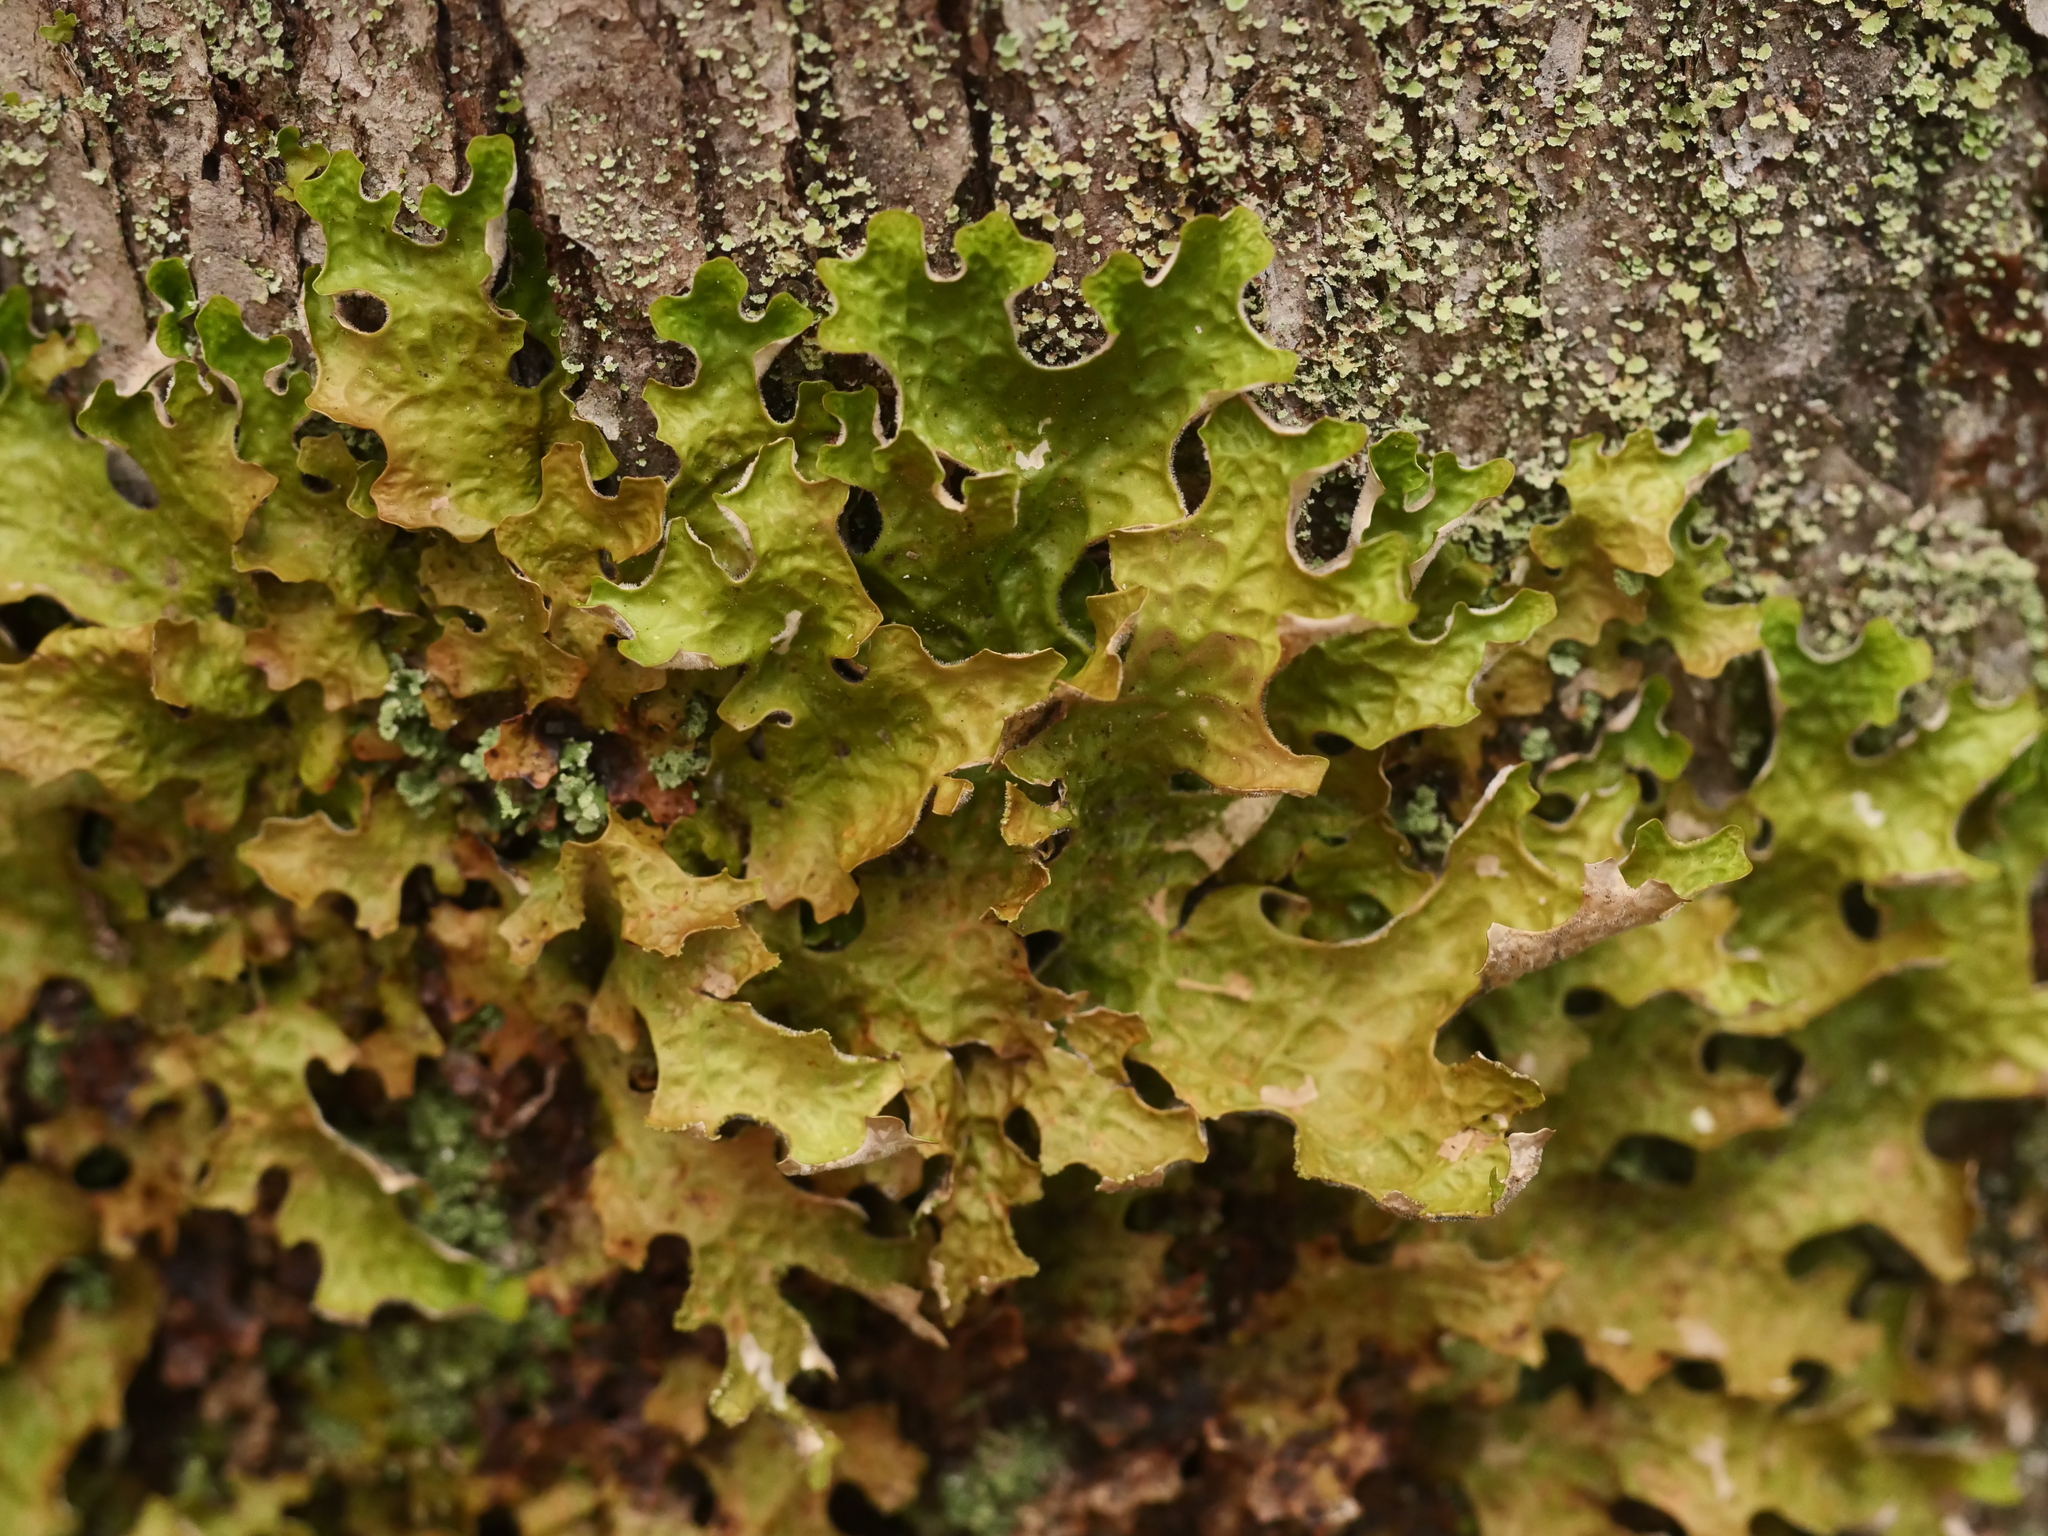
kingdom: Fungi
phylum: Ascomycota
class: Lecanoromycetes
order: Peltigerales
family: Lobariaceae
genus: Lobaria
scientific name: Lobaria pulmonaria
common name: Lungwort
